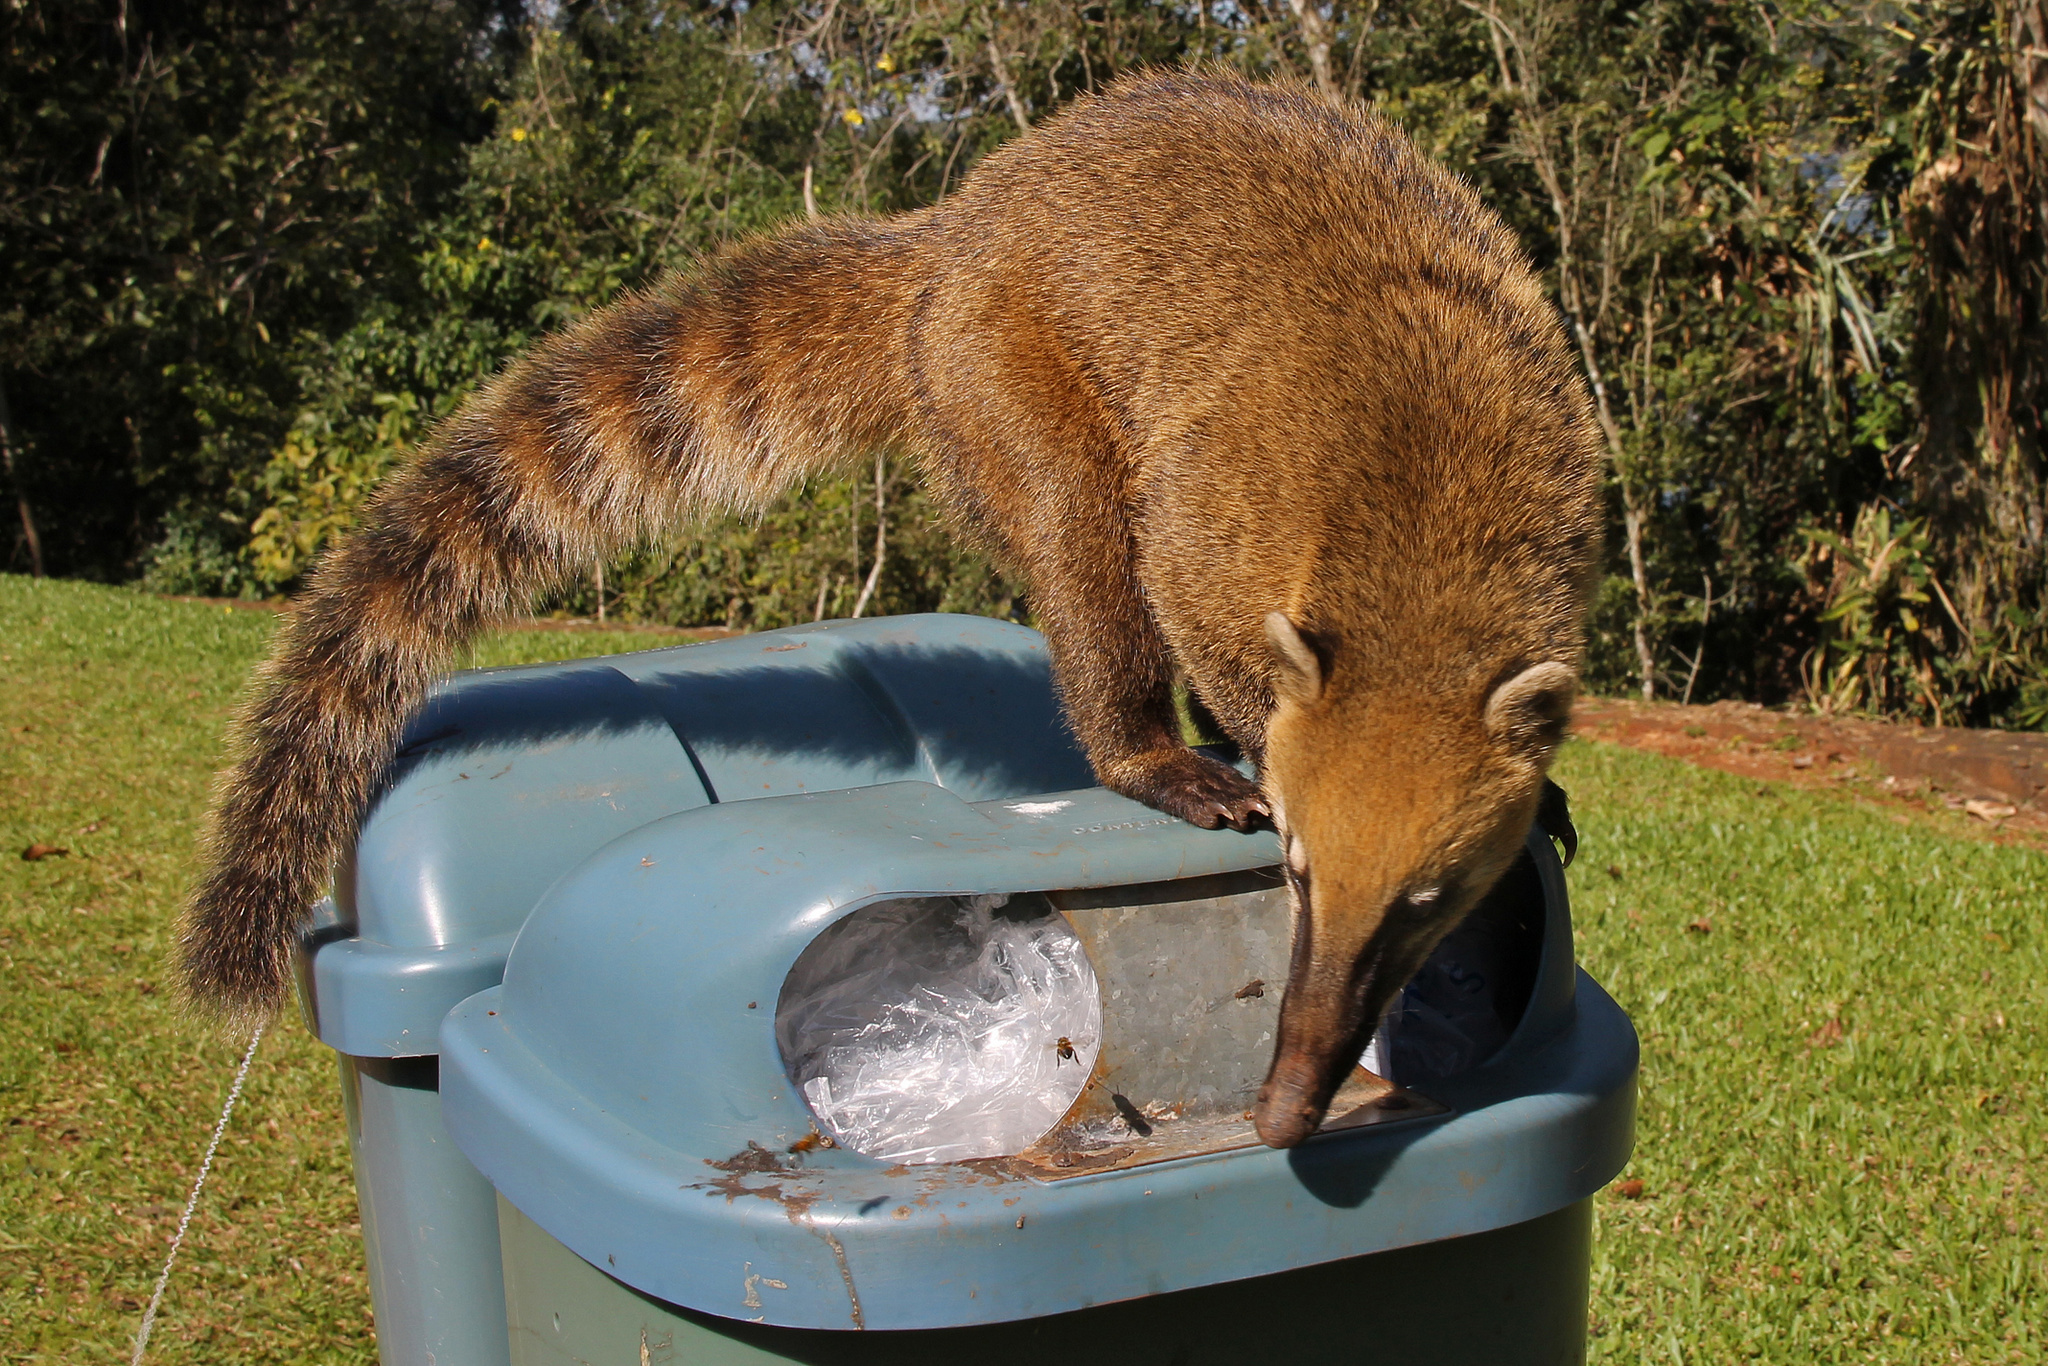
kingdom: Animalia
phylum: Chordata
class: Mammalia
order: Carnivora
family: Procyonidae
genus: Nasua
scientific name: Nasua nasua
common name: South american coati
